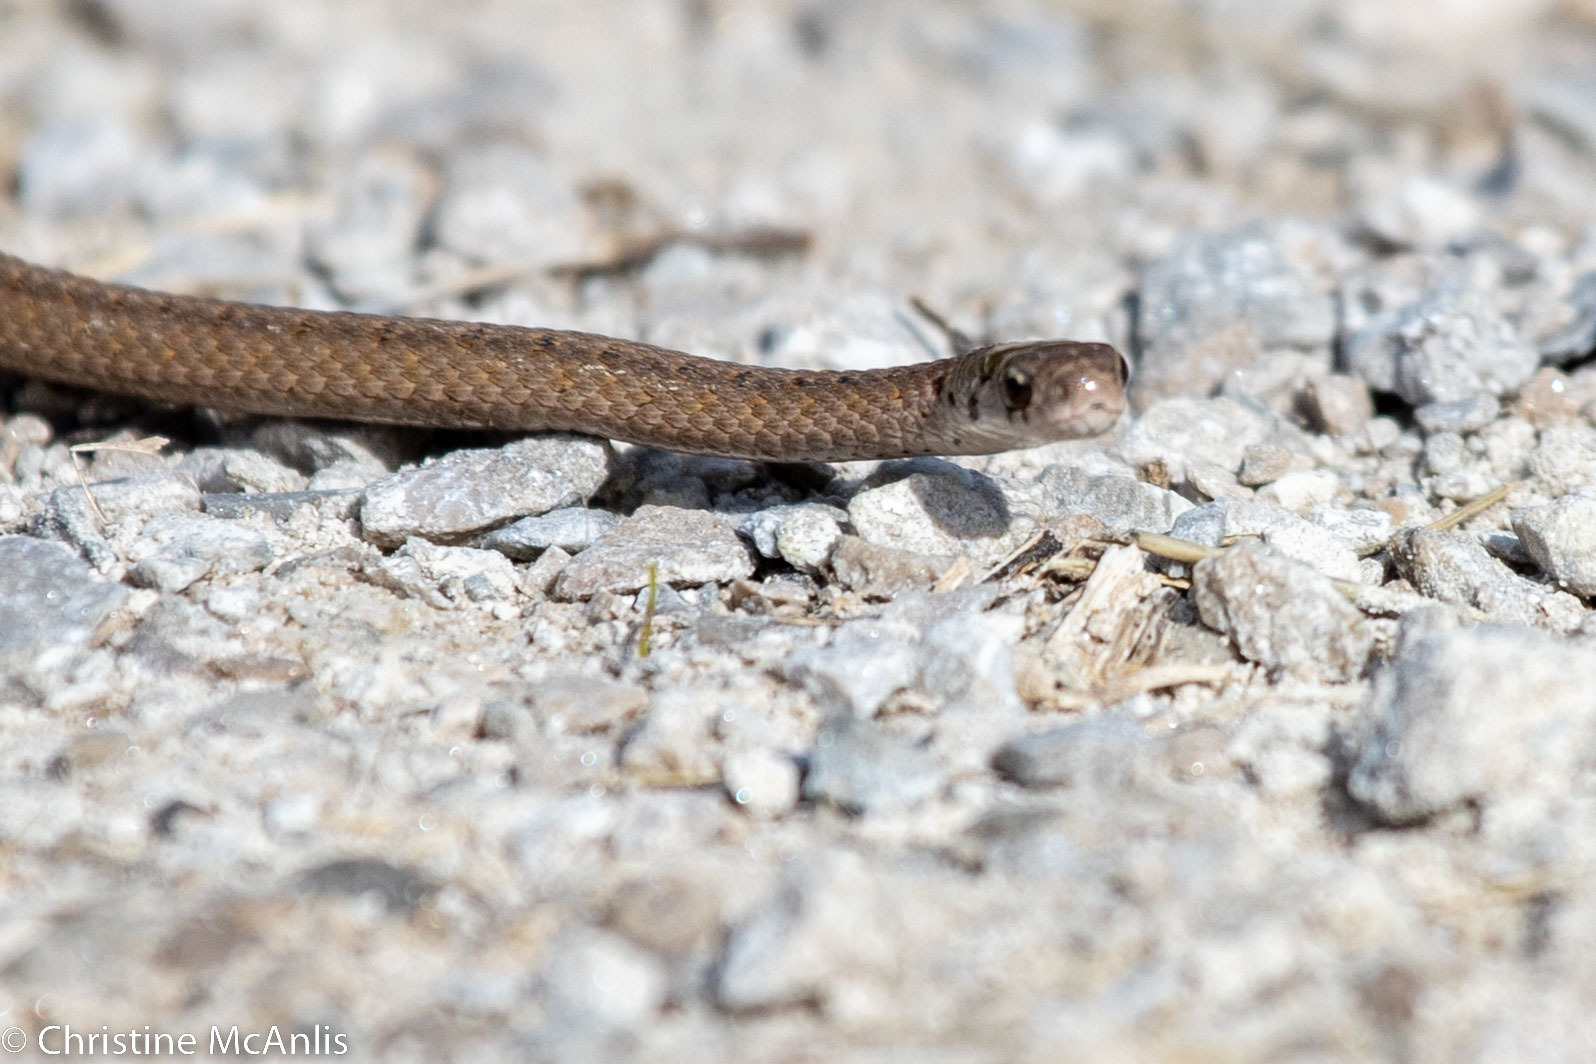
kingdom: Animalia
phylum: Chordata
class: Squamata
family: Colubridae
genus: Storeria
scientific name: Storeria dekayi
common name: (dekay’s) brown snake
